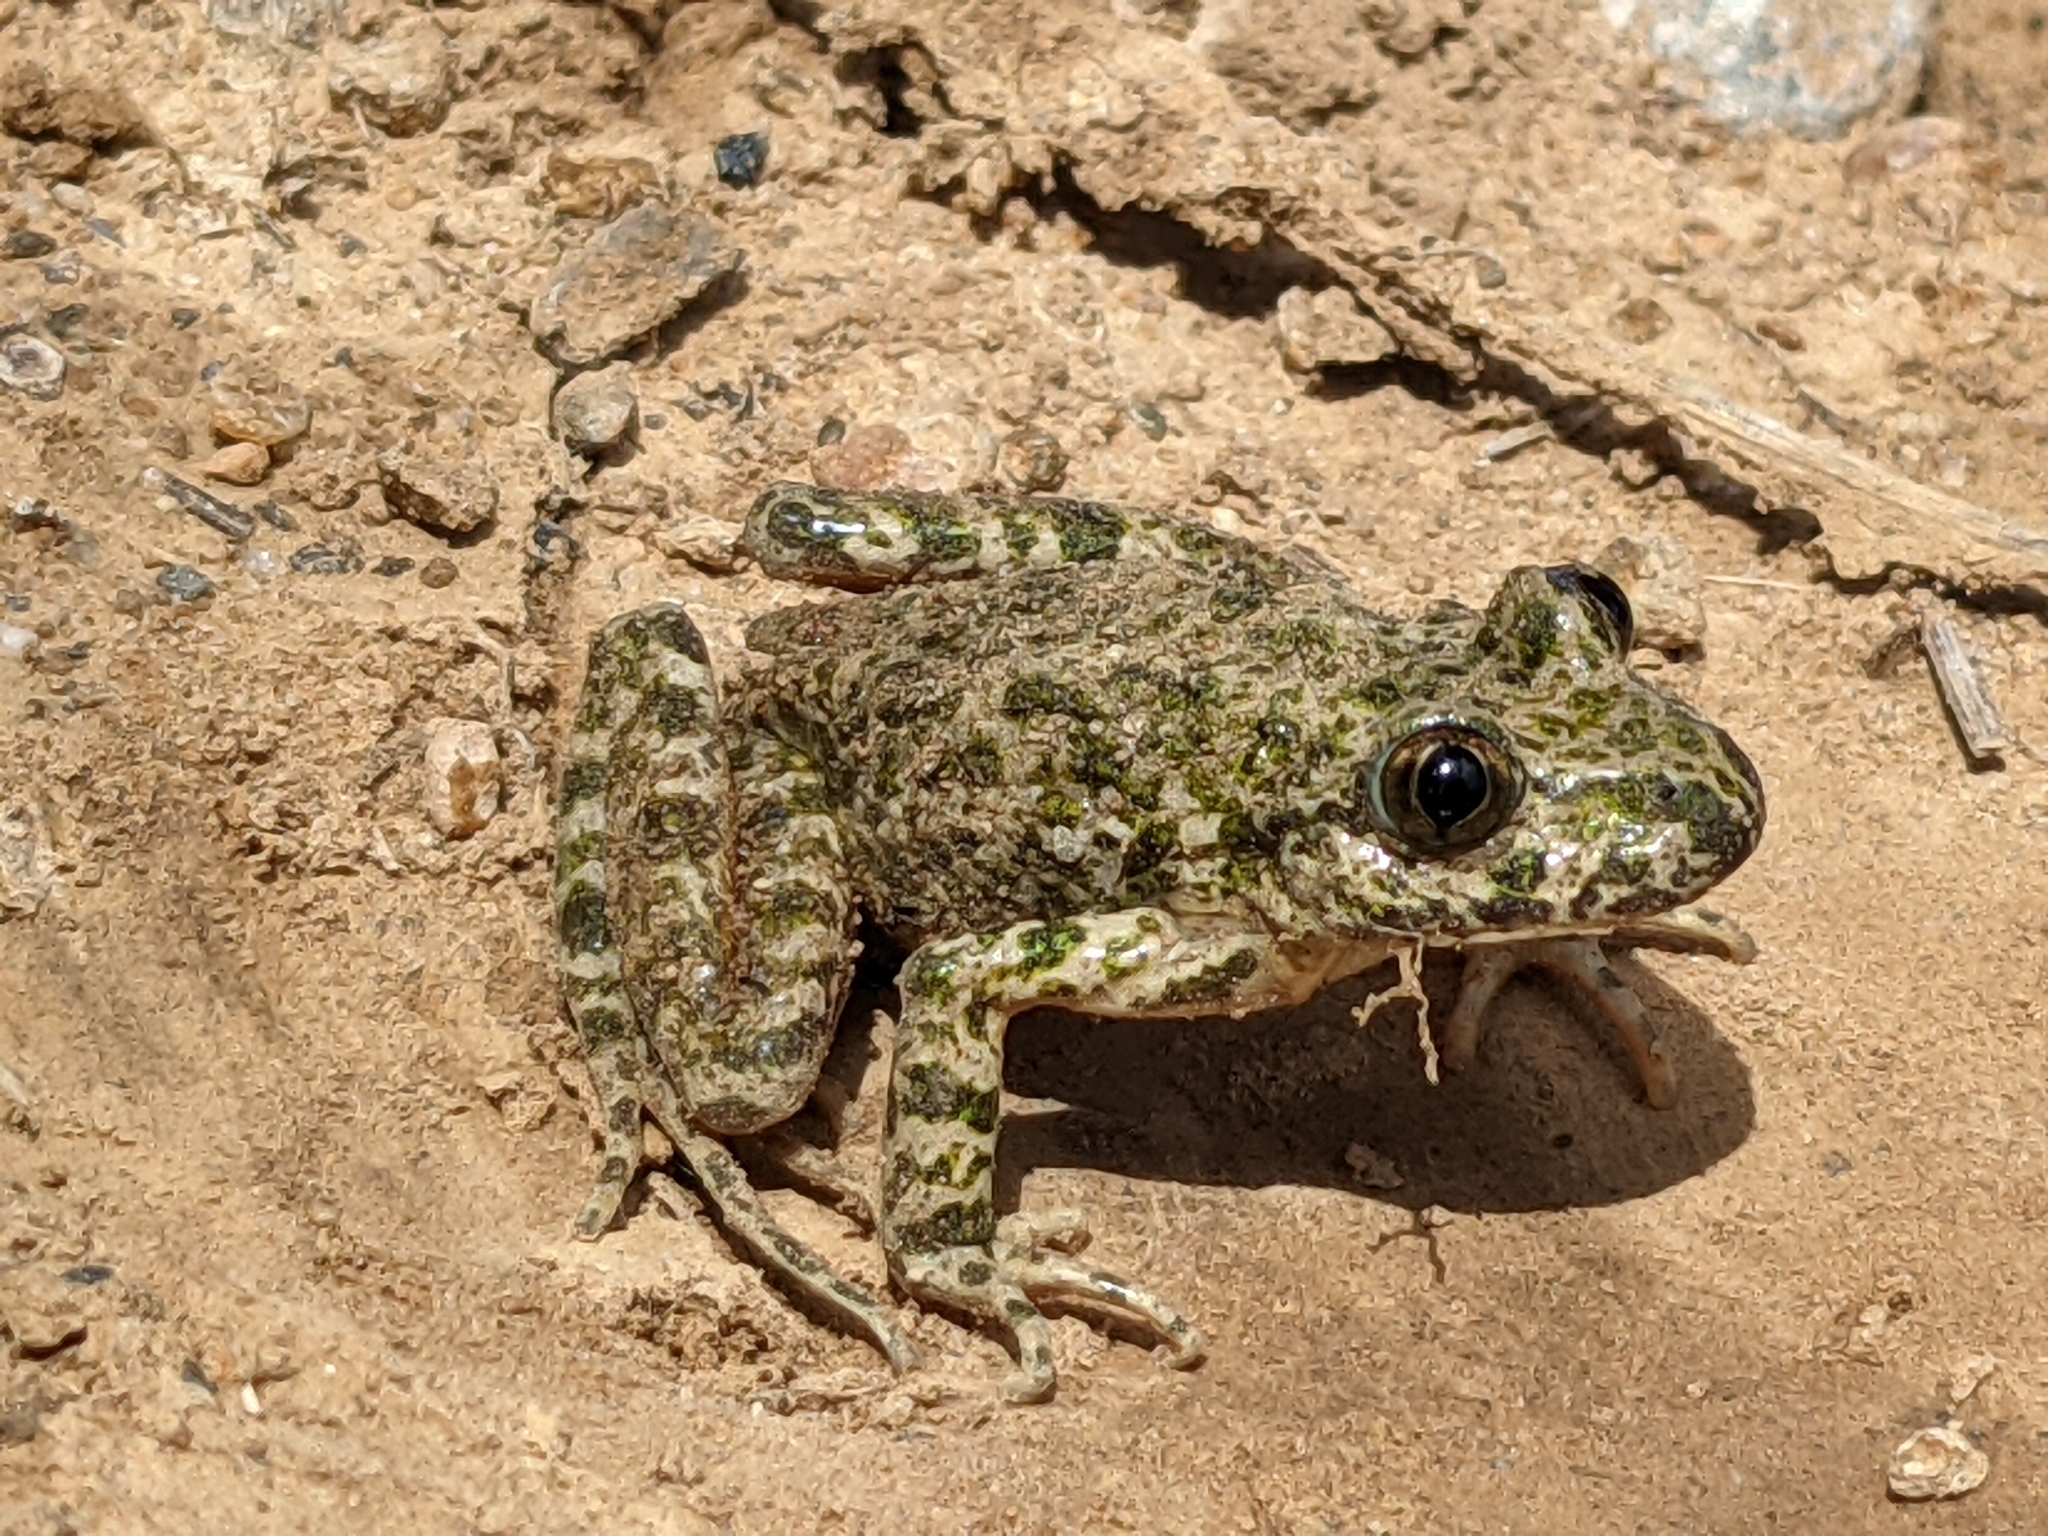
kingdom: Animalia
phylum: Chordata
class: Amphibia
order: Anura
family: Pelodytidae
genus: Pelodytes
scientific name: Pelodytes punctatus
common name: Parsley frog
